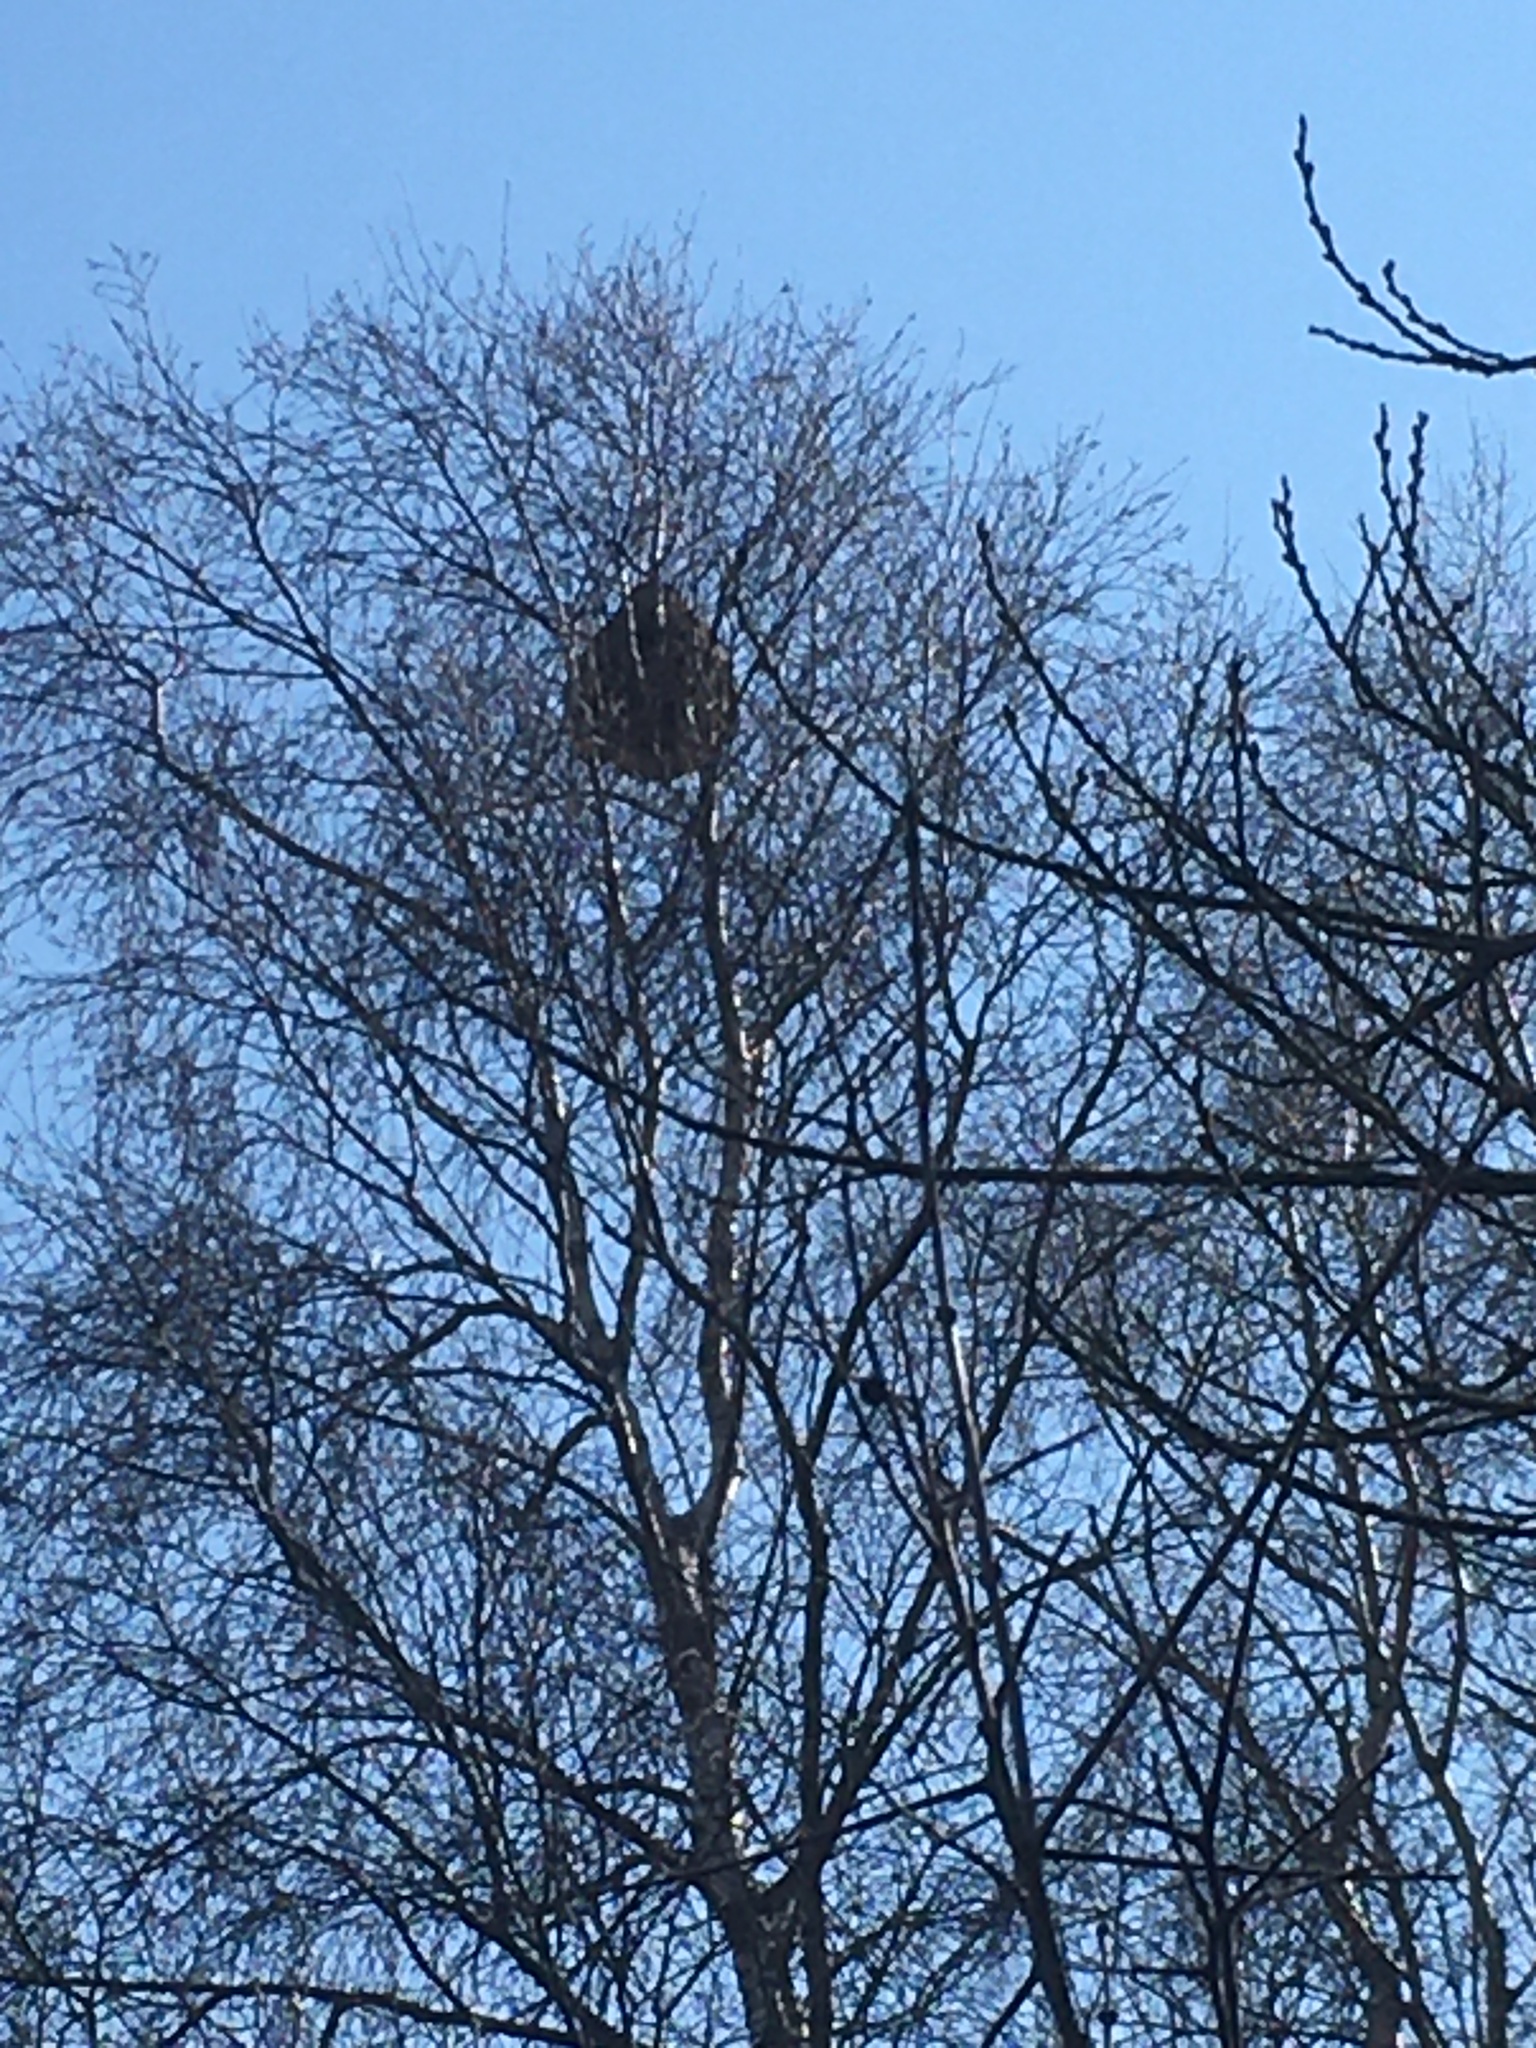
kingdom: Animalia
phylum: Arthropoda
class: Insecta
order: Hymenoptera
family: Vespidae
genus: Vespa
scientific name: Vespa velutina
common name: Asian hornet
